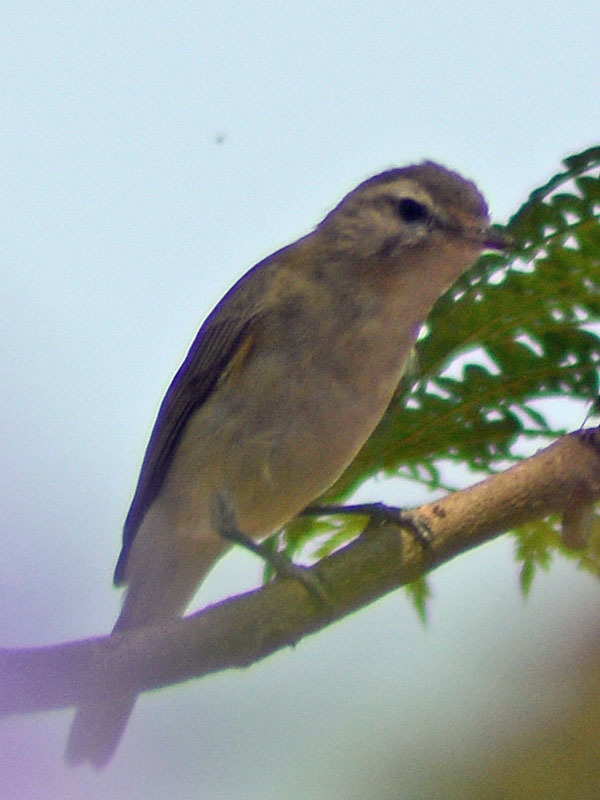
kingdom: Animalia
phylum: Chordata
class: Aves
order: Passeriformes
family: Vireonidae
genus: Vireo
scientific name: Vireo gilvus
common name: Warbling vireo
